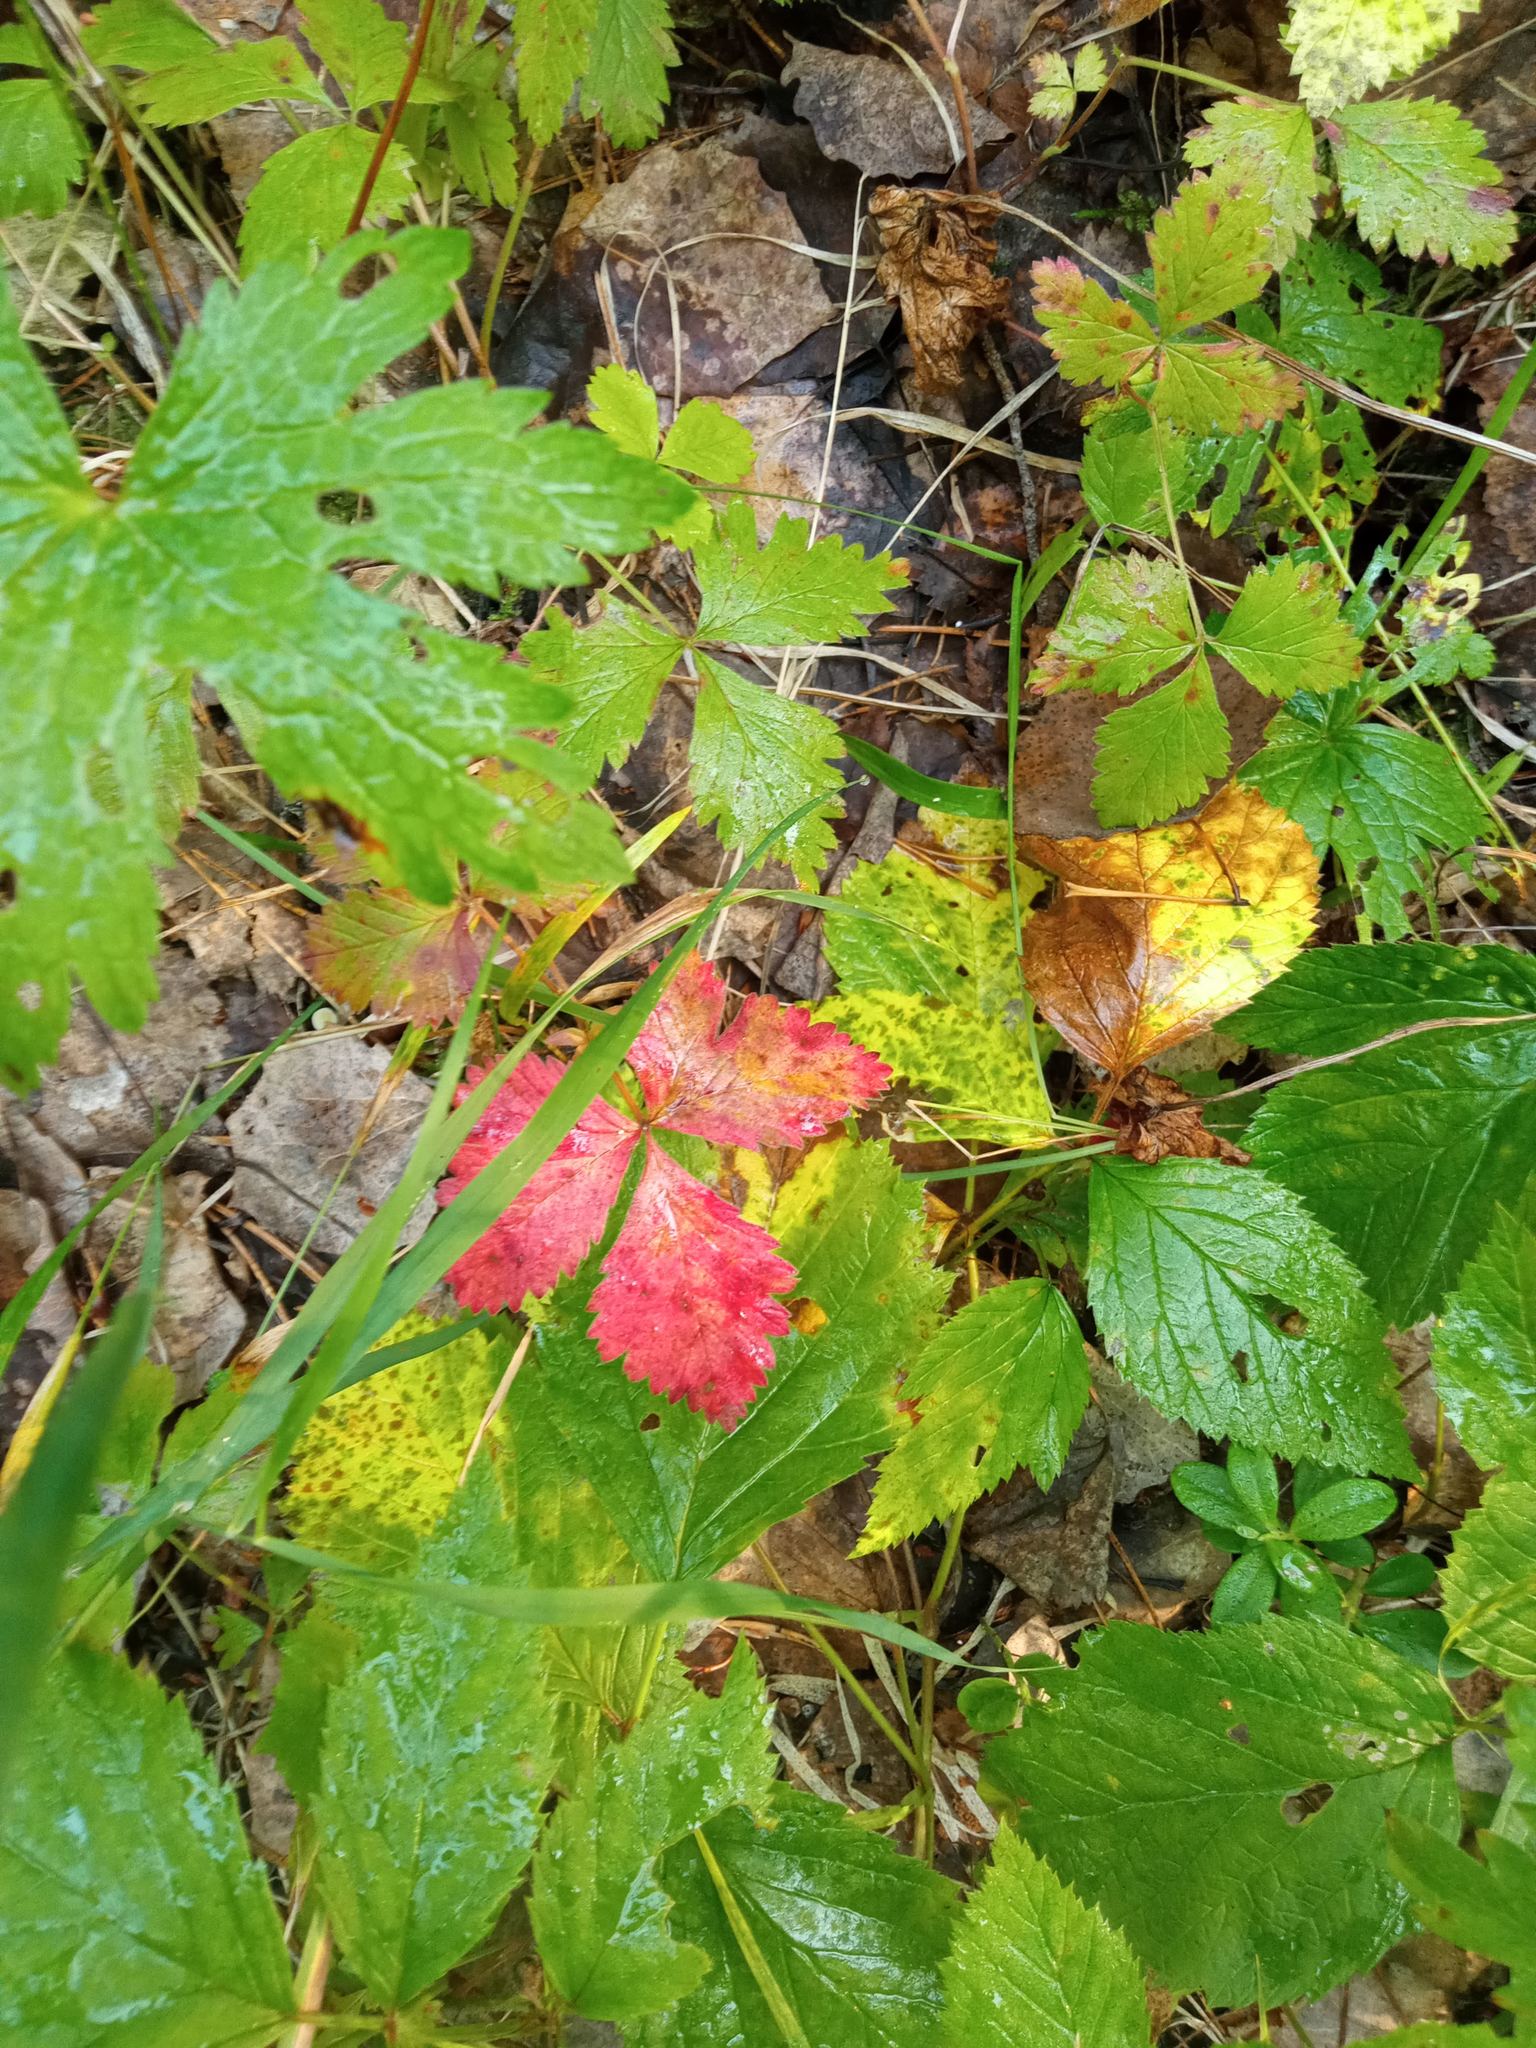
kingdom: Plantae
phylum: Tracheophyta
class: Magnoliopsida
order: Rosales
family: Rosaceae
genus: Rubus
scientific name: Rubus arcticus
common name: Arctic bramble
